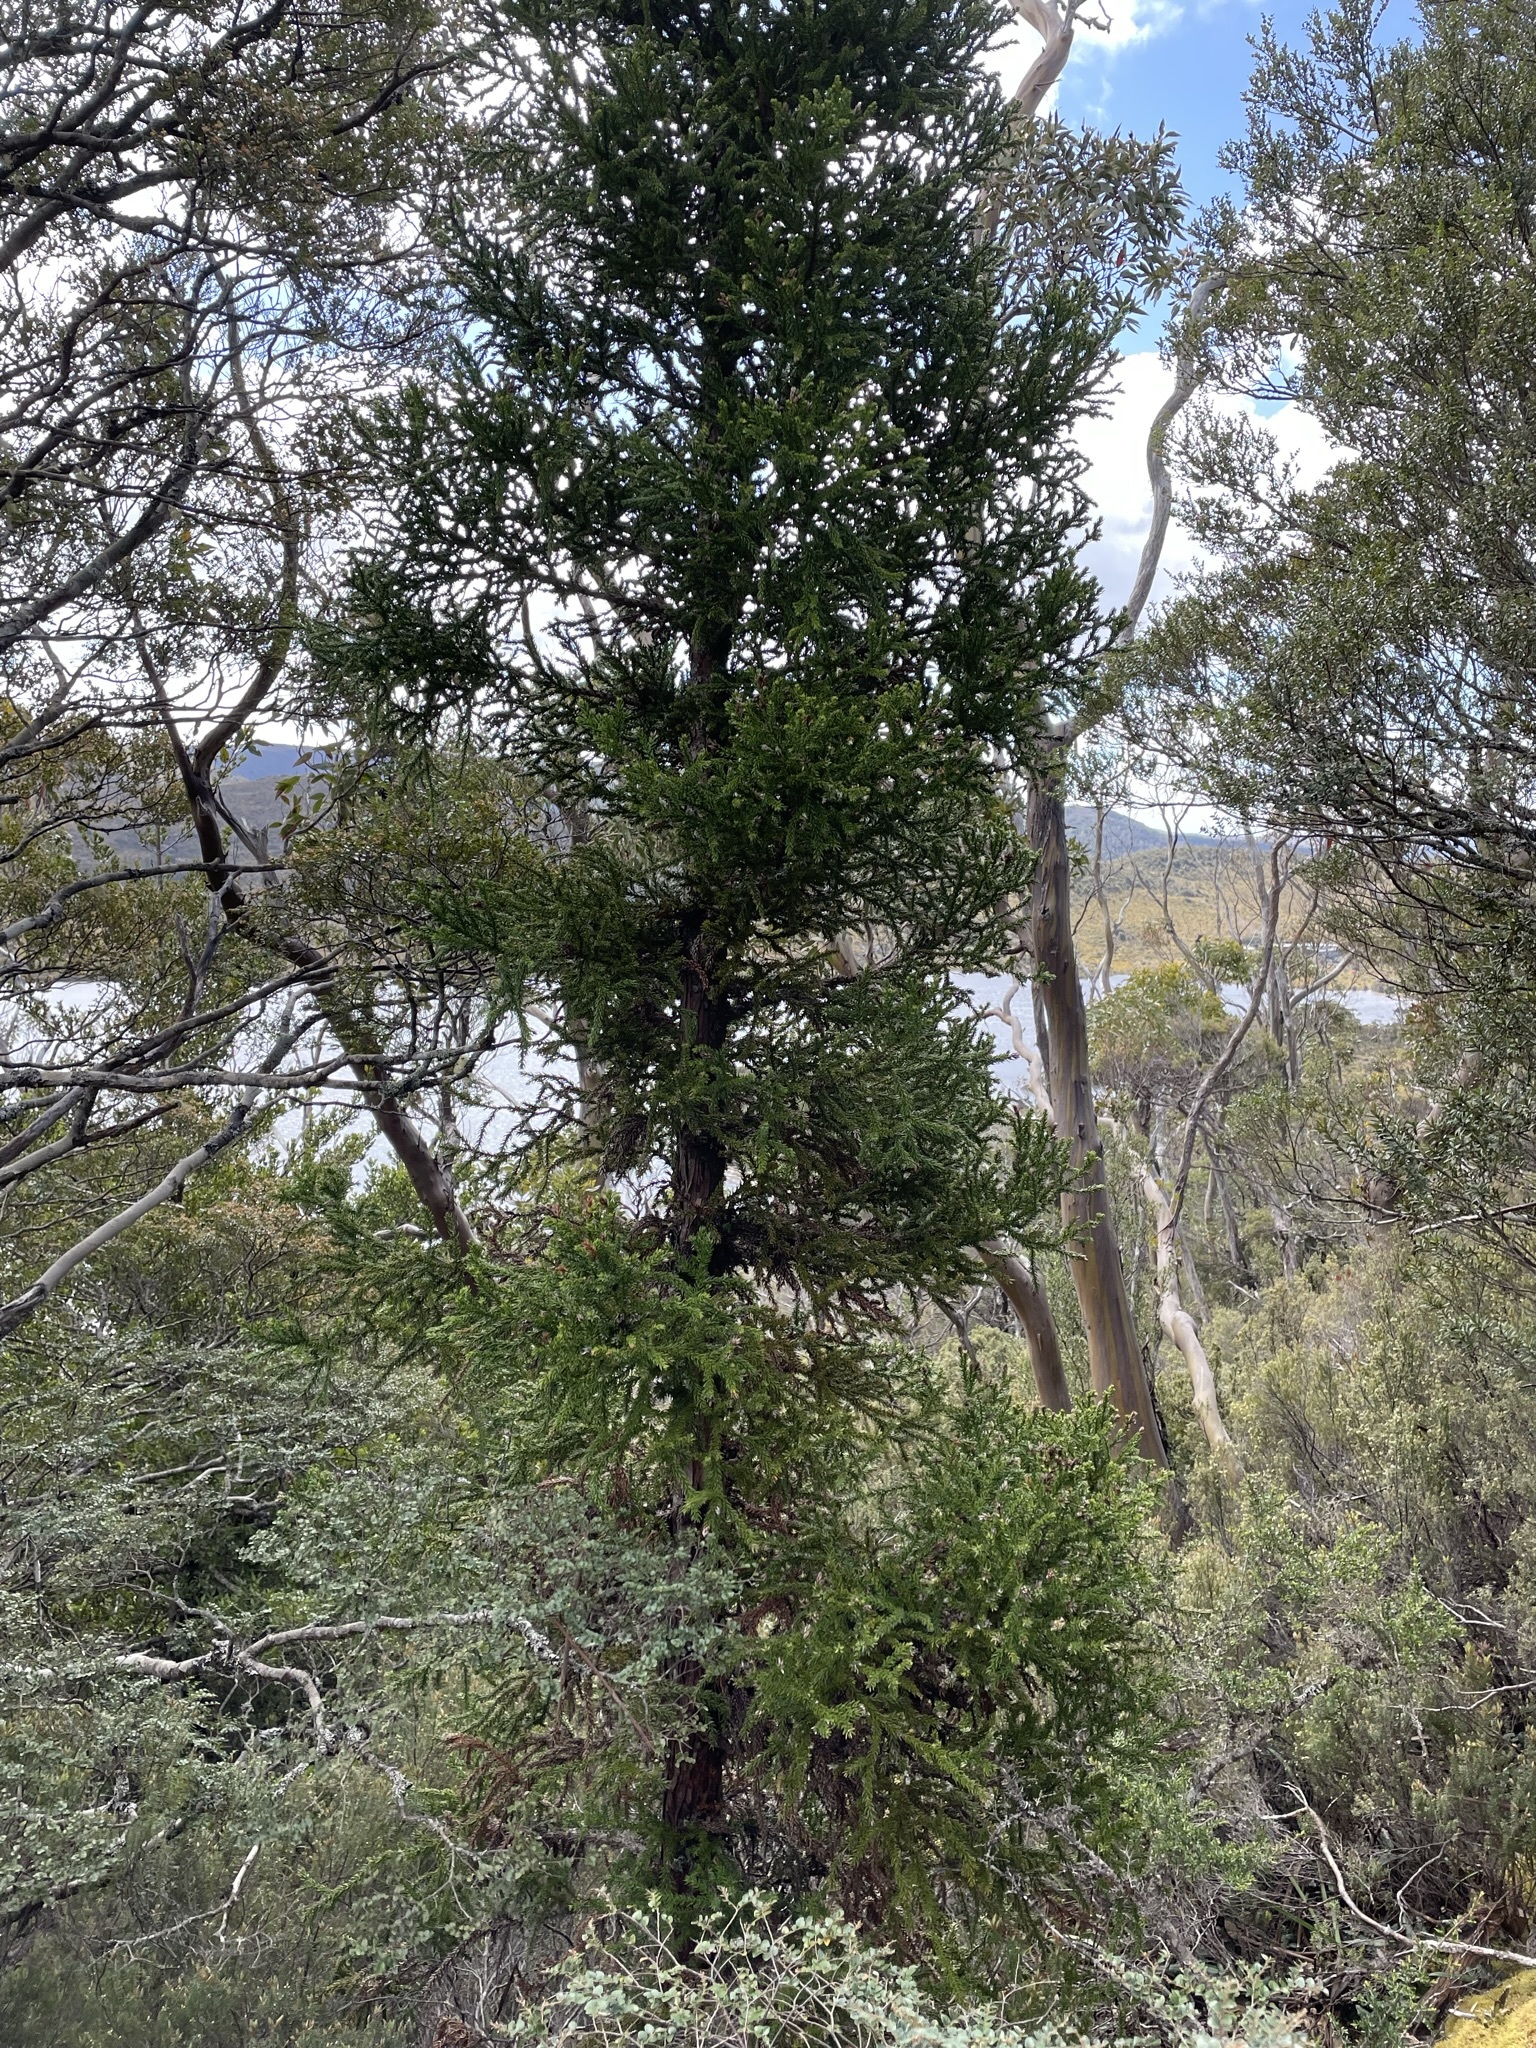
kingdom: Plantae
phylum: Tracheophyta
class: Pinopsida
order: Pinales
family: Cupressaceae
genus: Athrotaxis
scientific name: Athrotaxis selaginoides
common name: King william pine
